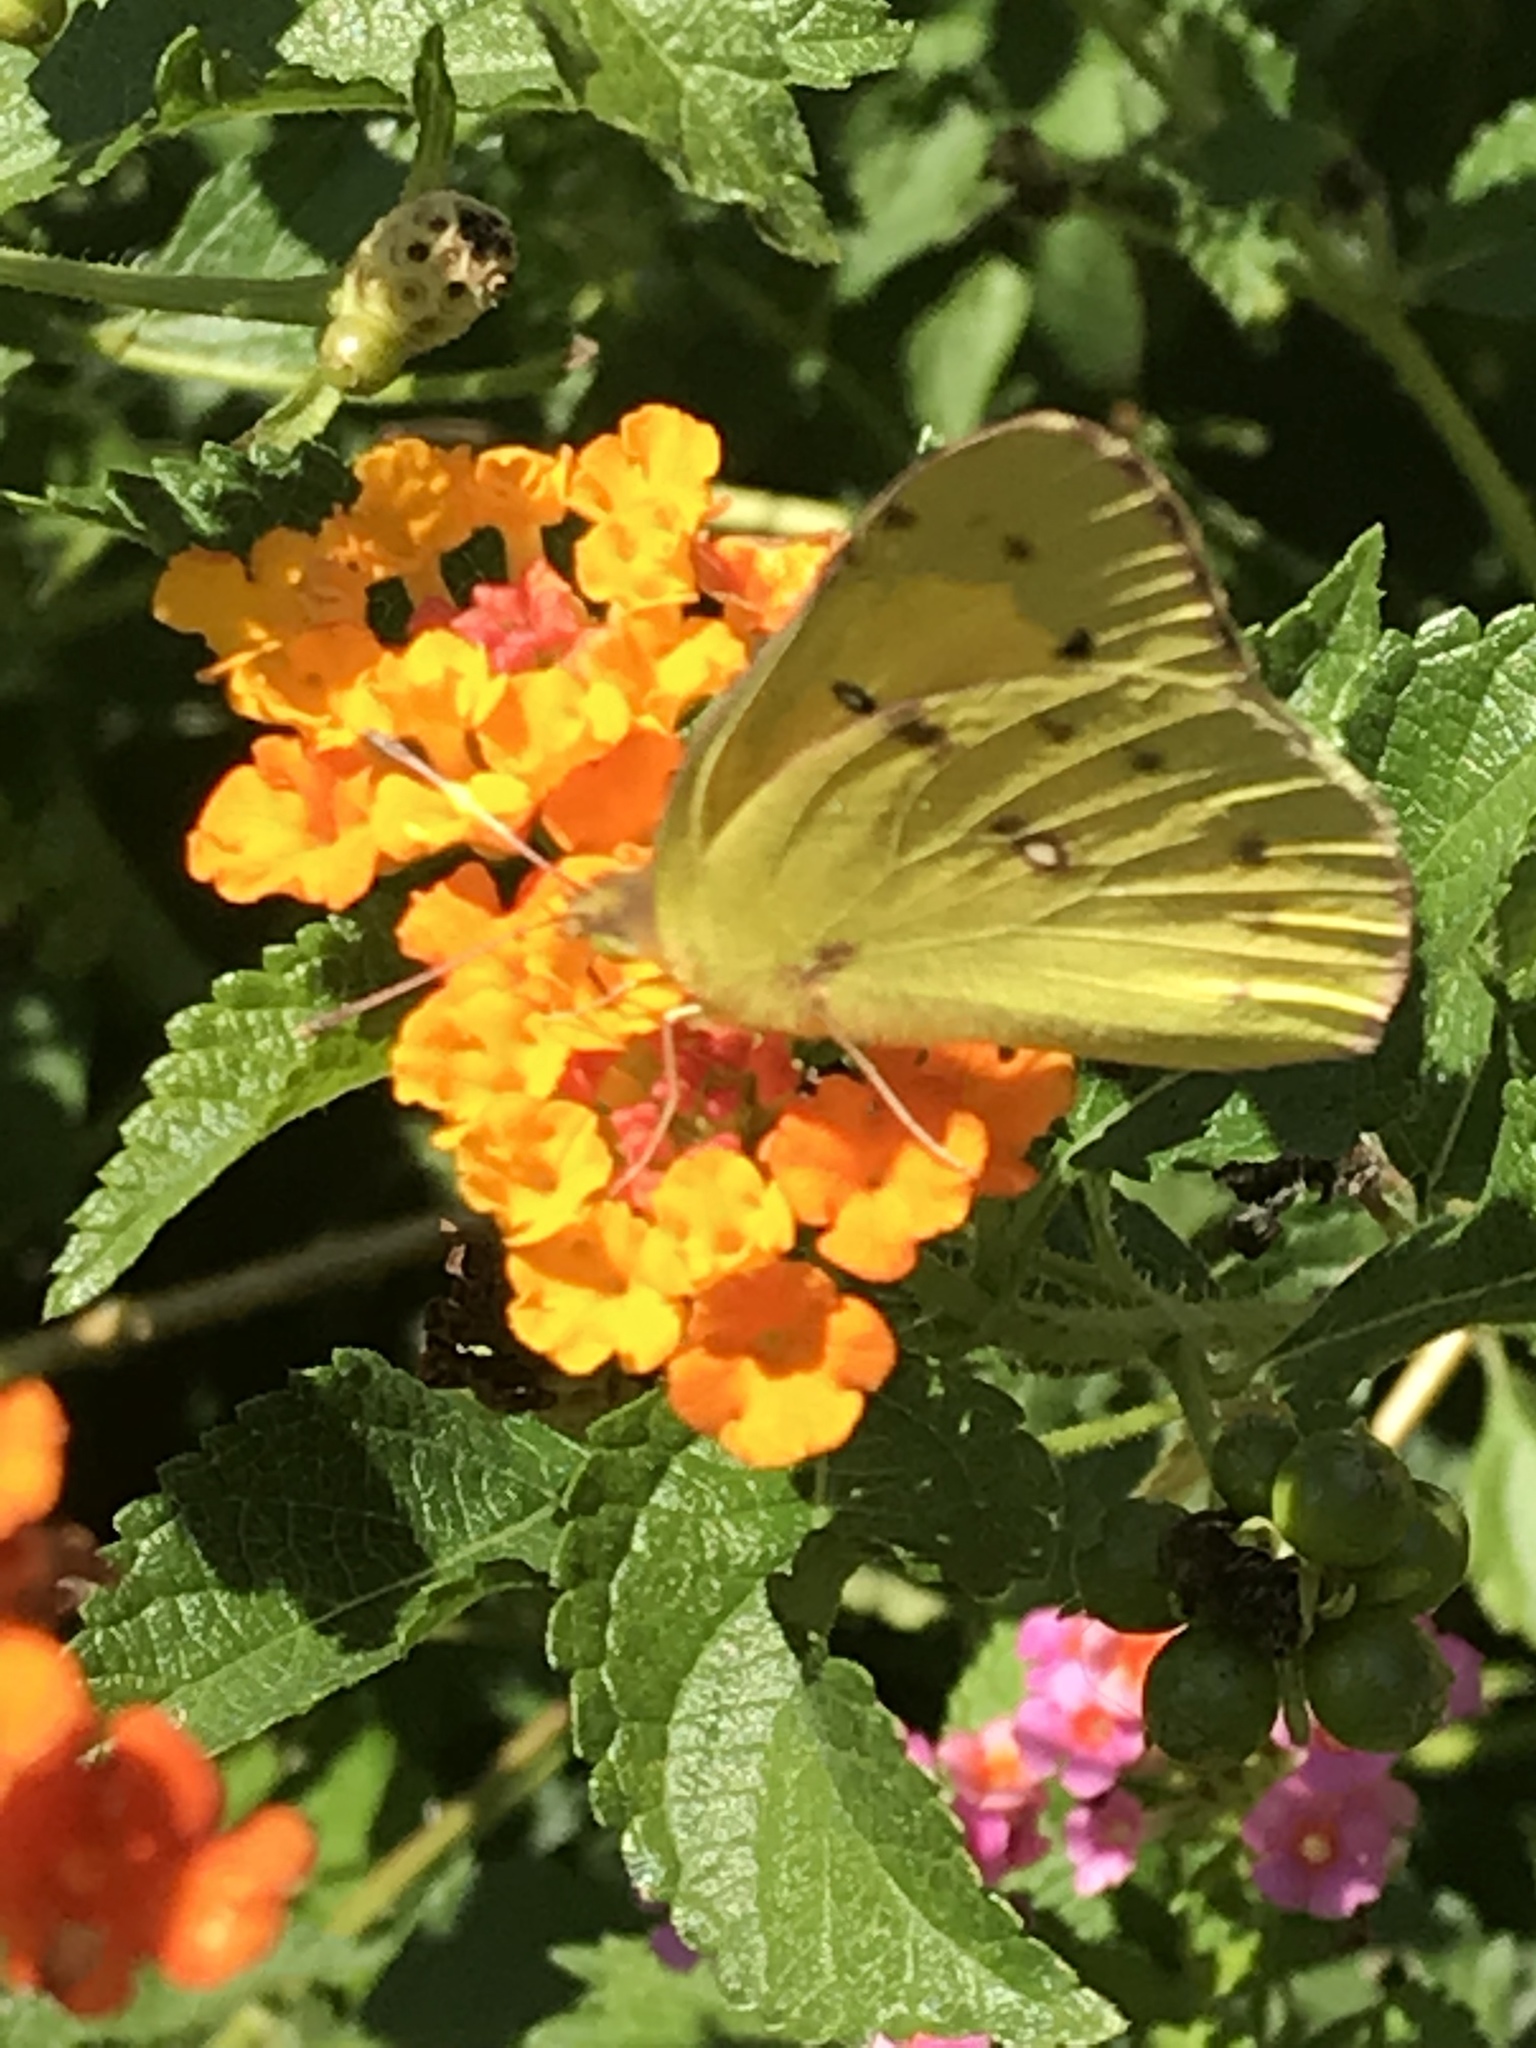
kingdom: Animalia
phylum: Arthropoda
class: Insecta
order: Lepidoptera
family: Pieridae
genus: Colias
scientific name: Colias eurytheme
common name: Alfalfa butterfly
